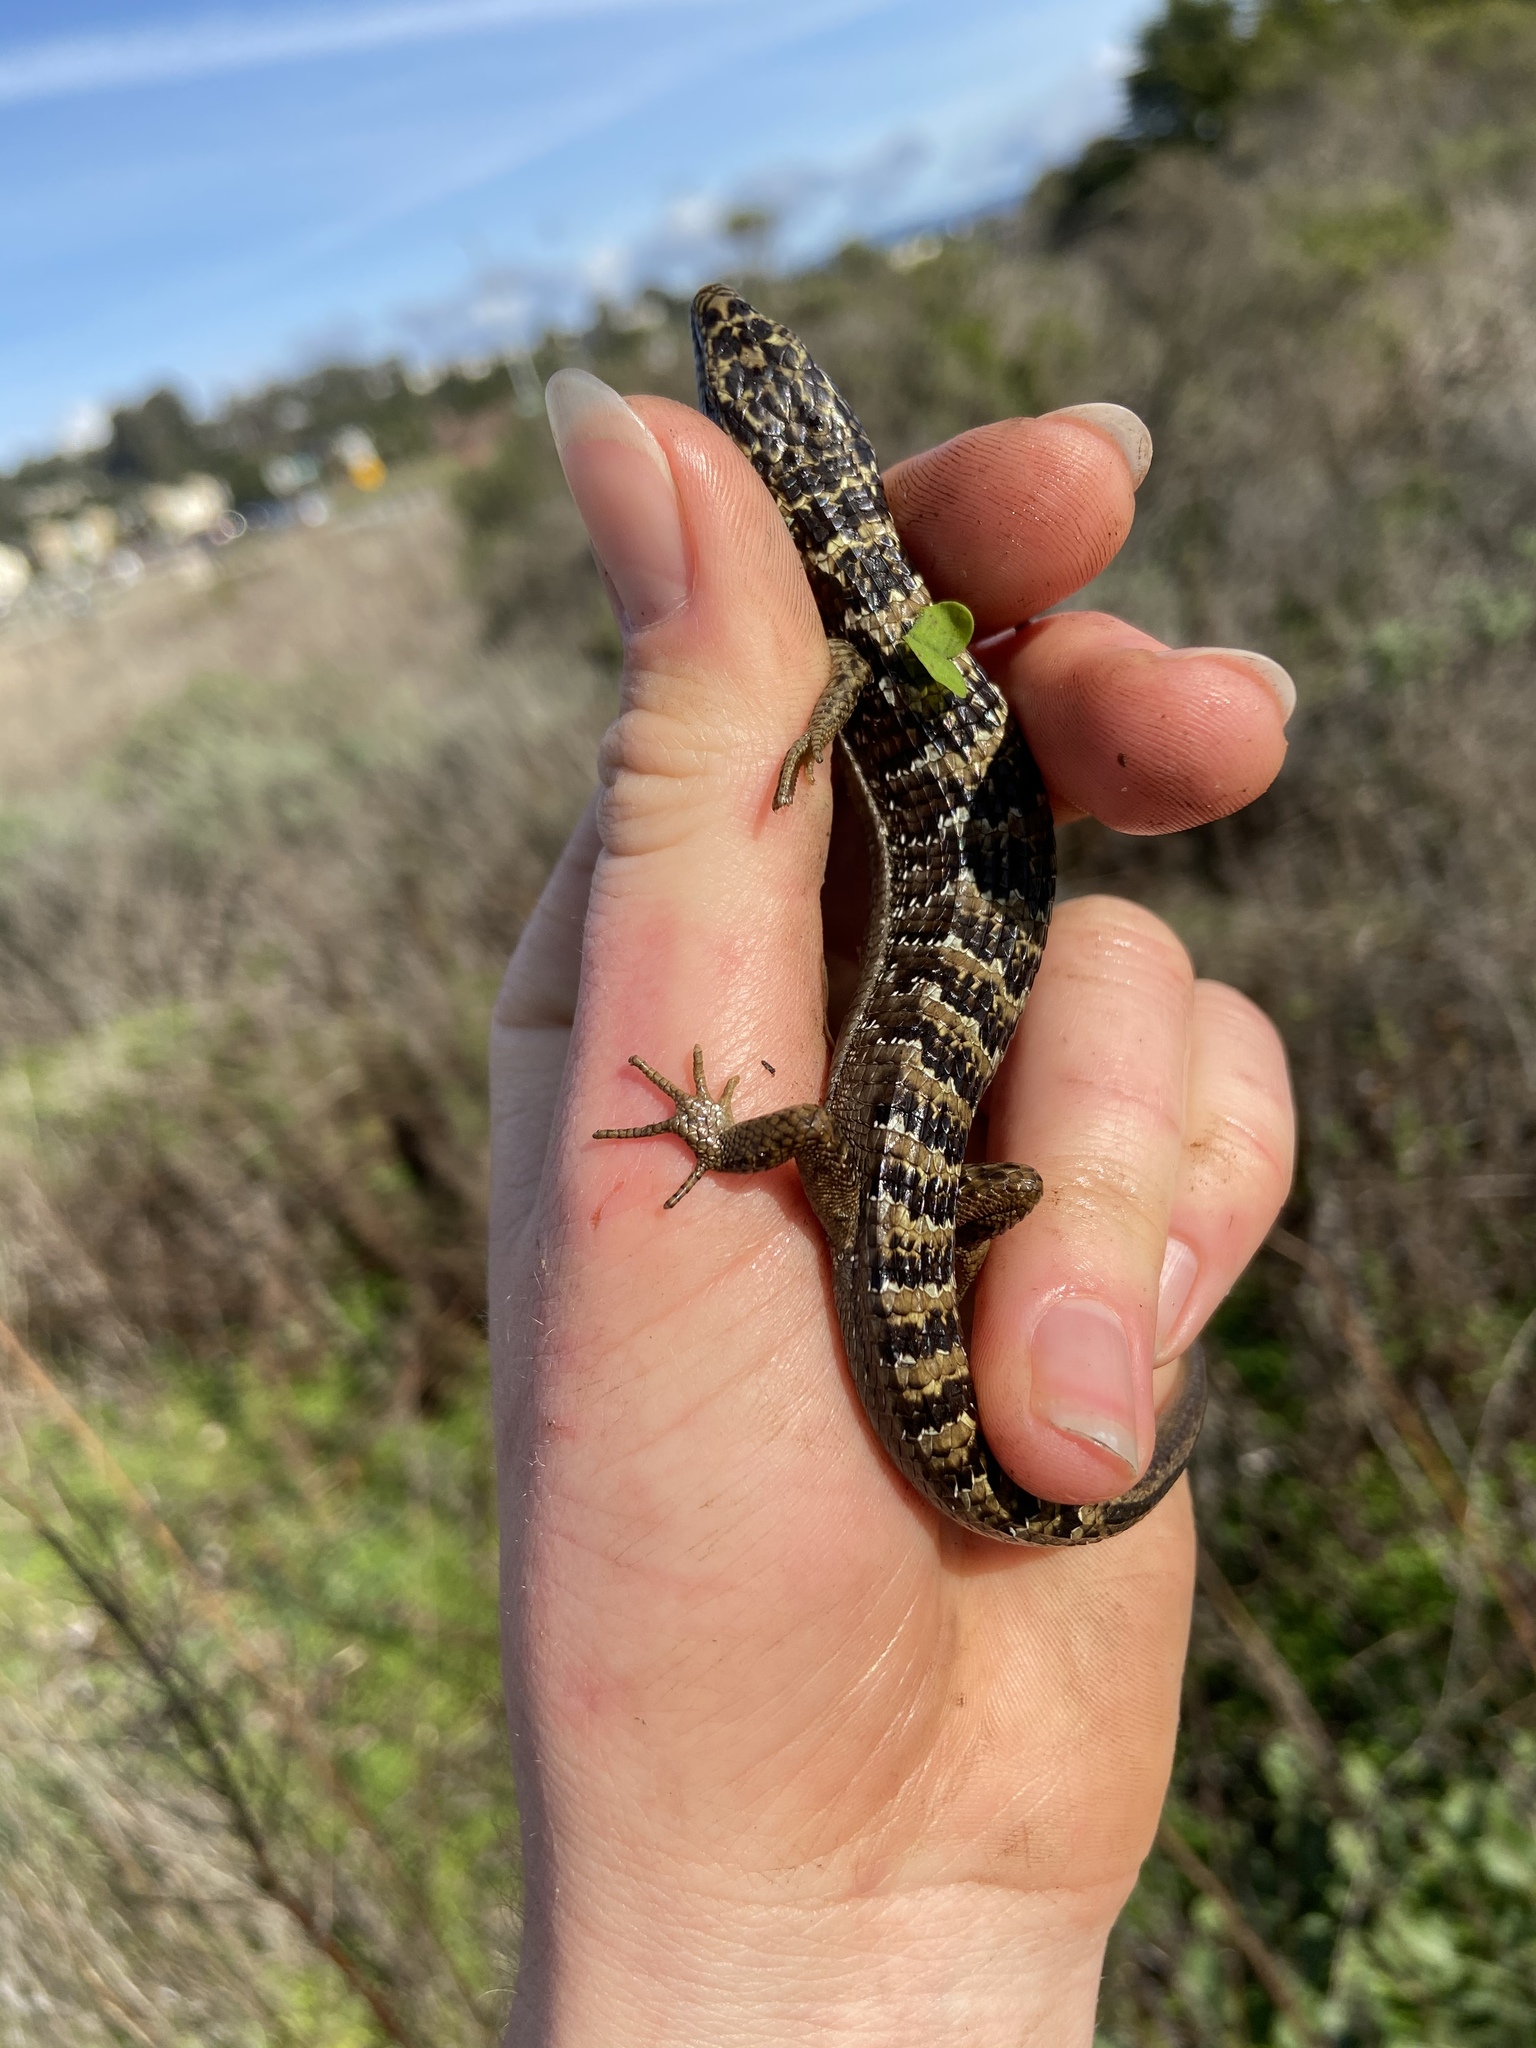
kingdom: Animalia
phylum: Chordata
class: Squamata
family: Anguidae
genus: Elgaria
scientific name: Elgaria multicarinata
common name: Southern alligator lizard
